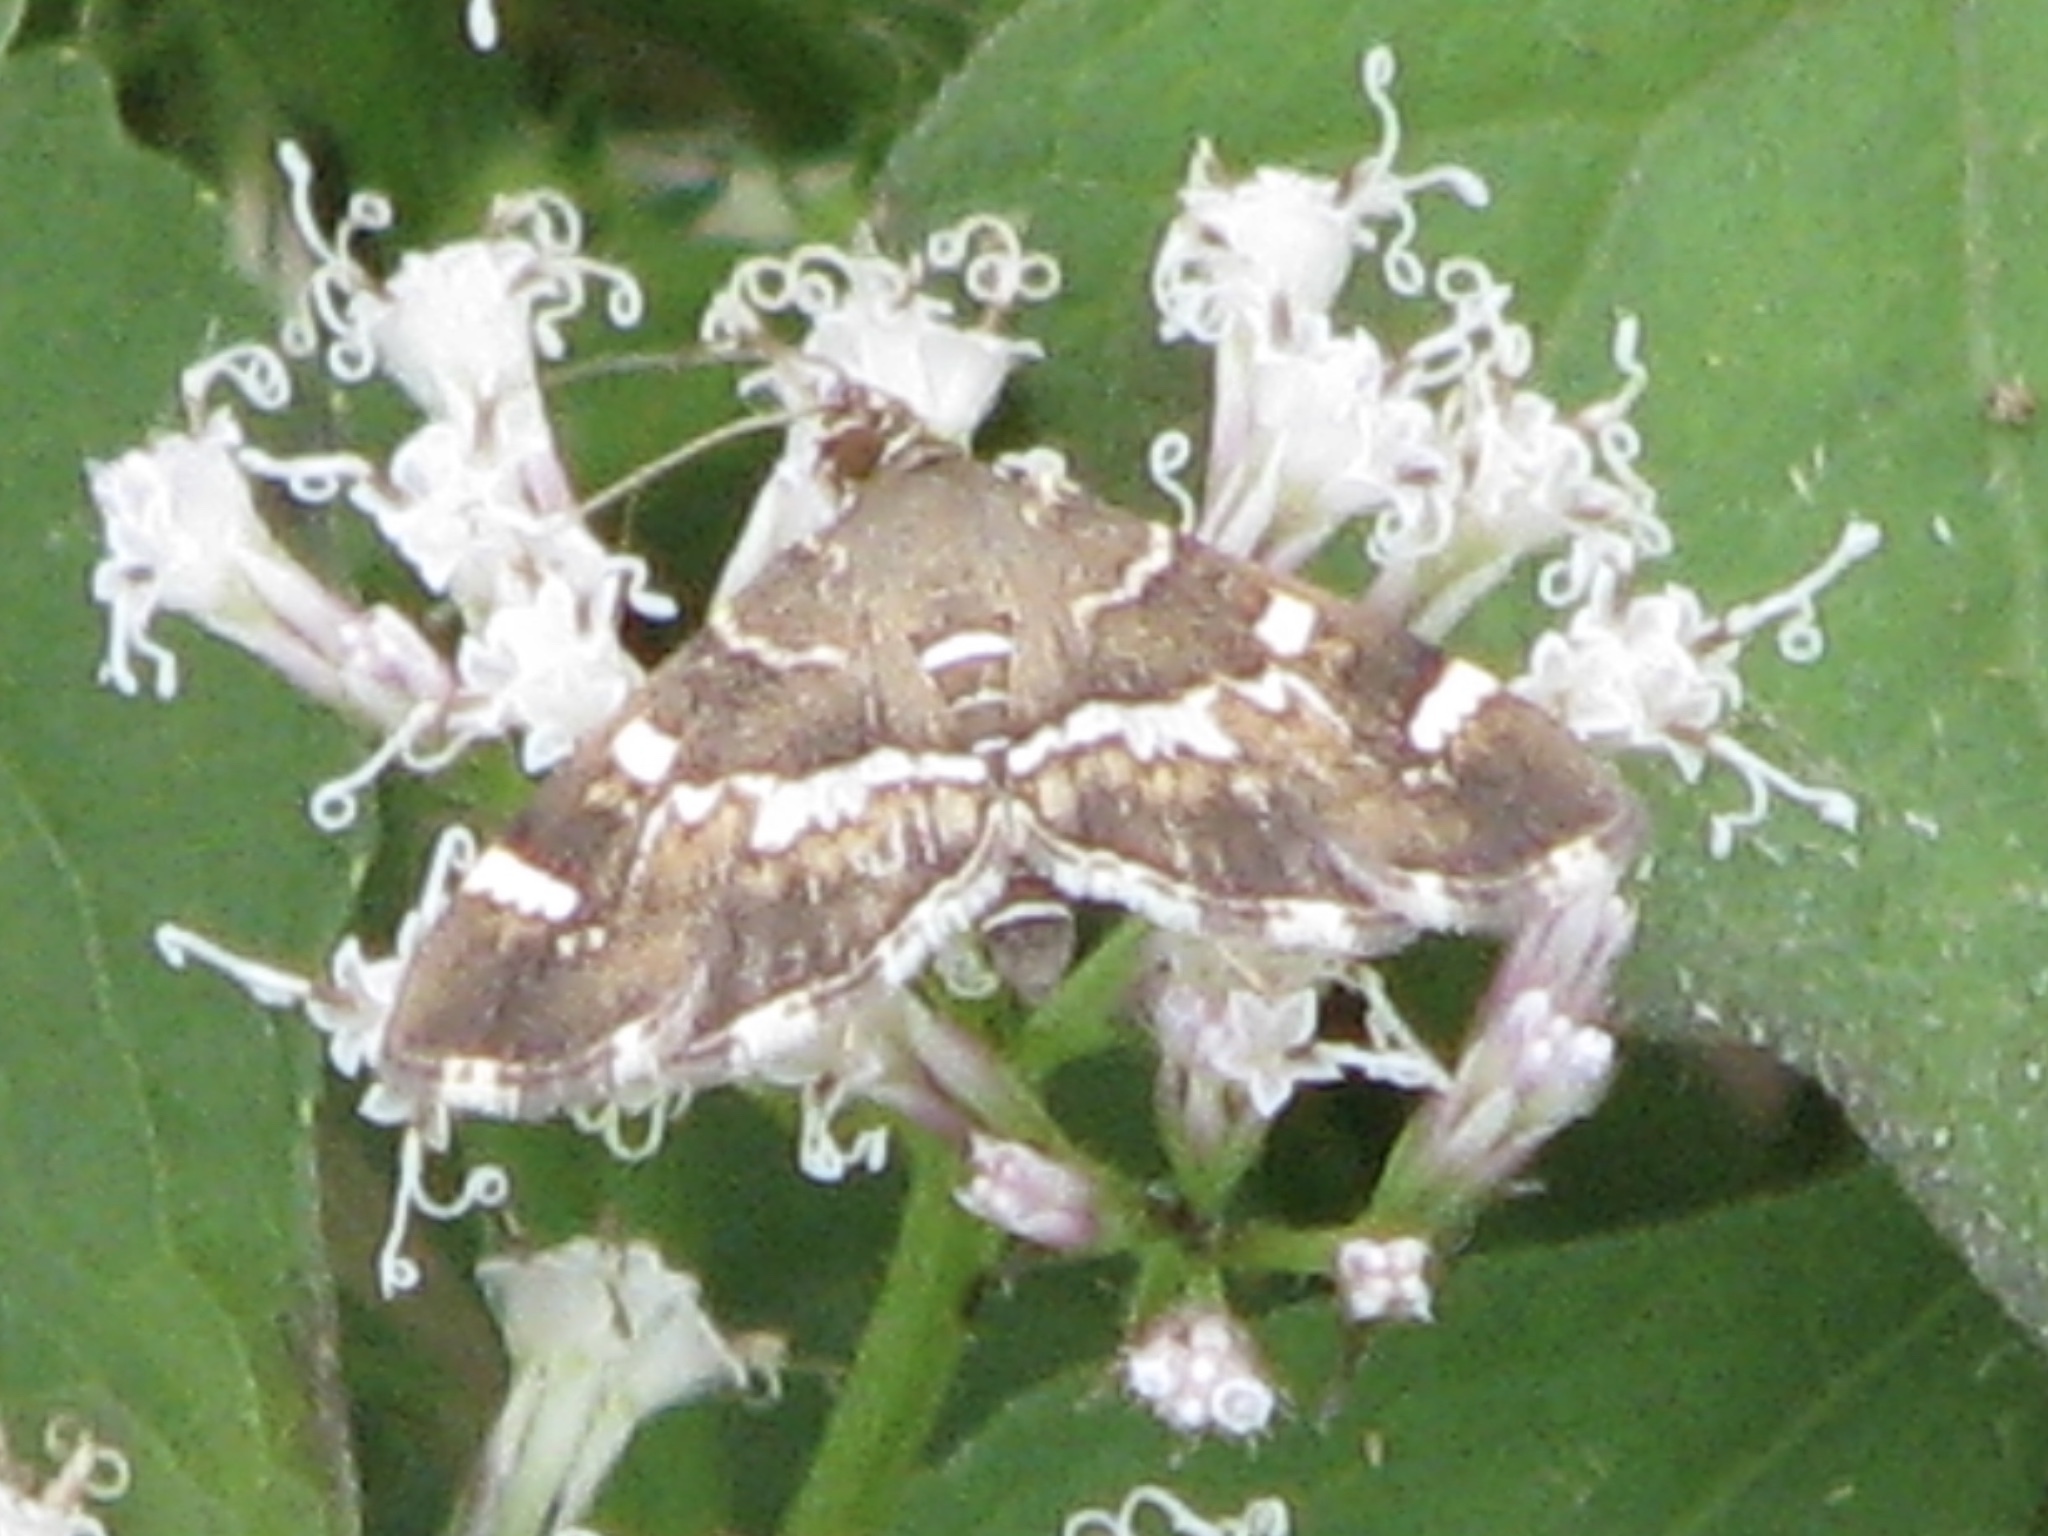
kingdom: Animalia
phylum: Arthropoda
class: Insecta
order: Lepidoptera
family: Crambidae
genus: Hymenia
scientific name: Hymenia perspectalis
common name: Spotted beet webworm
